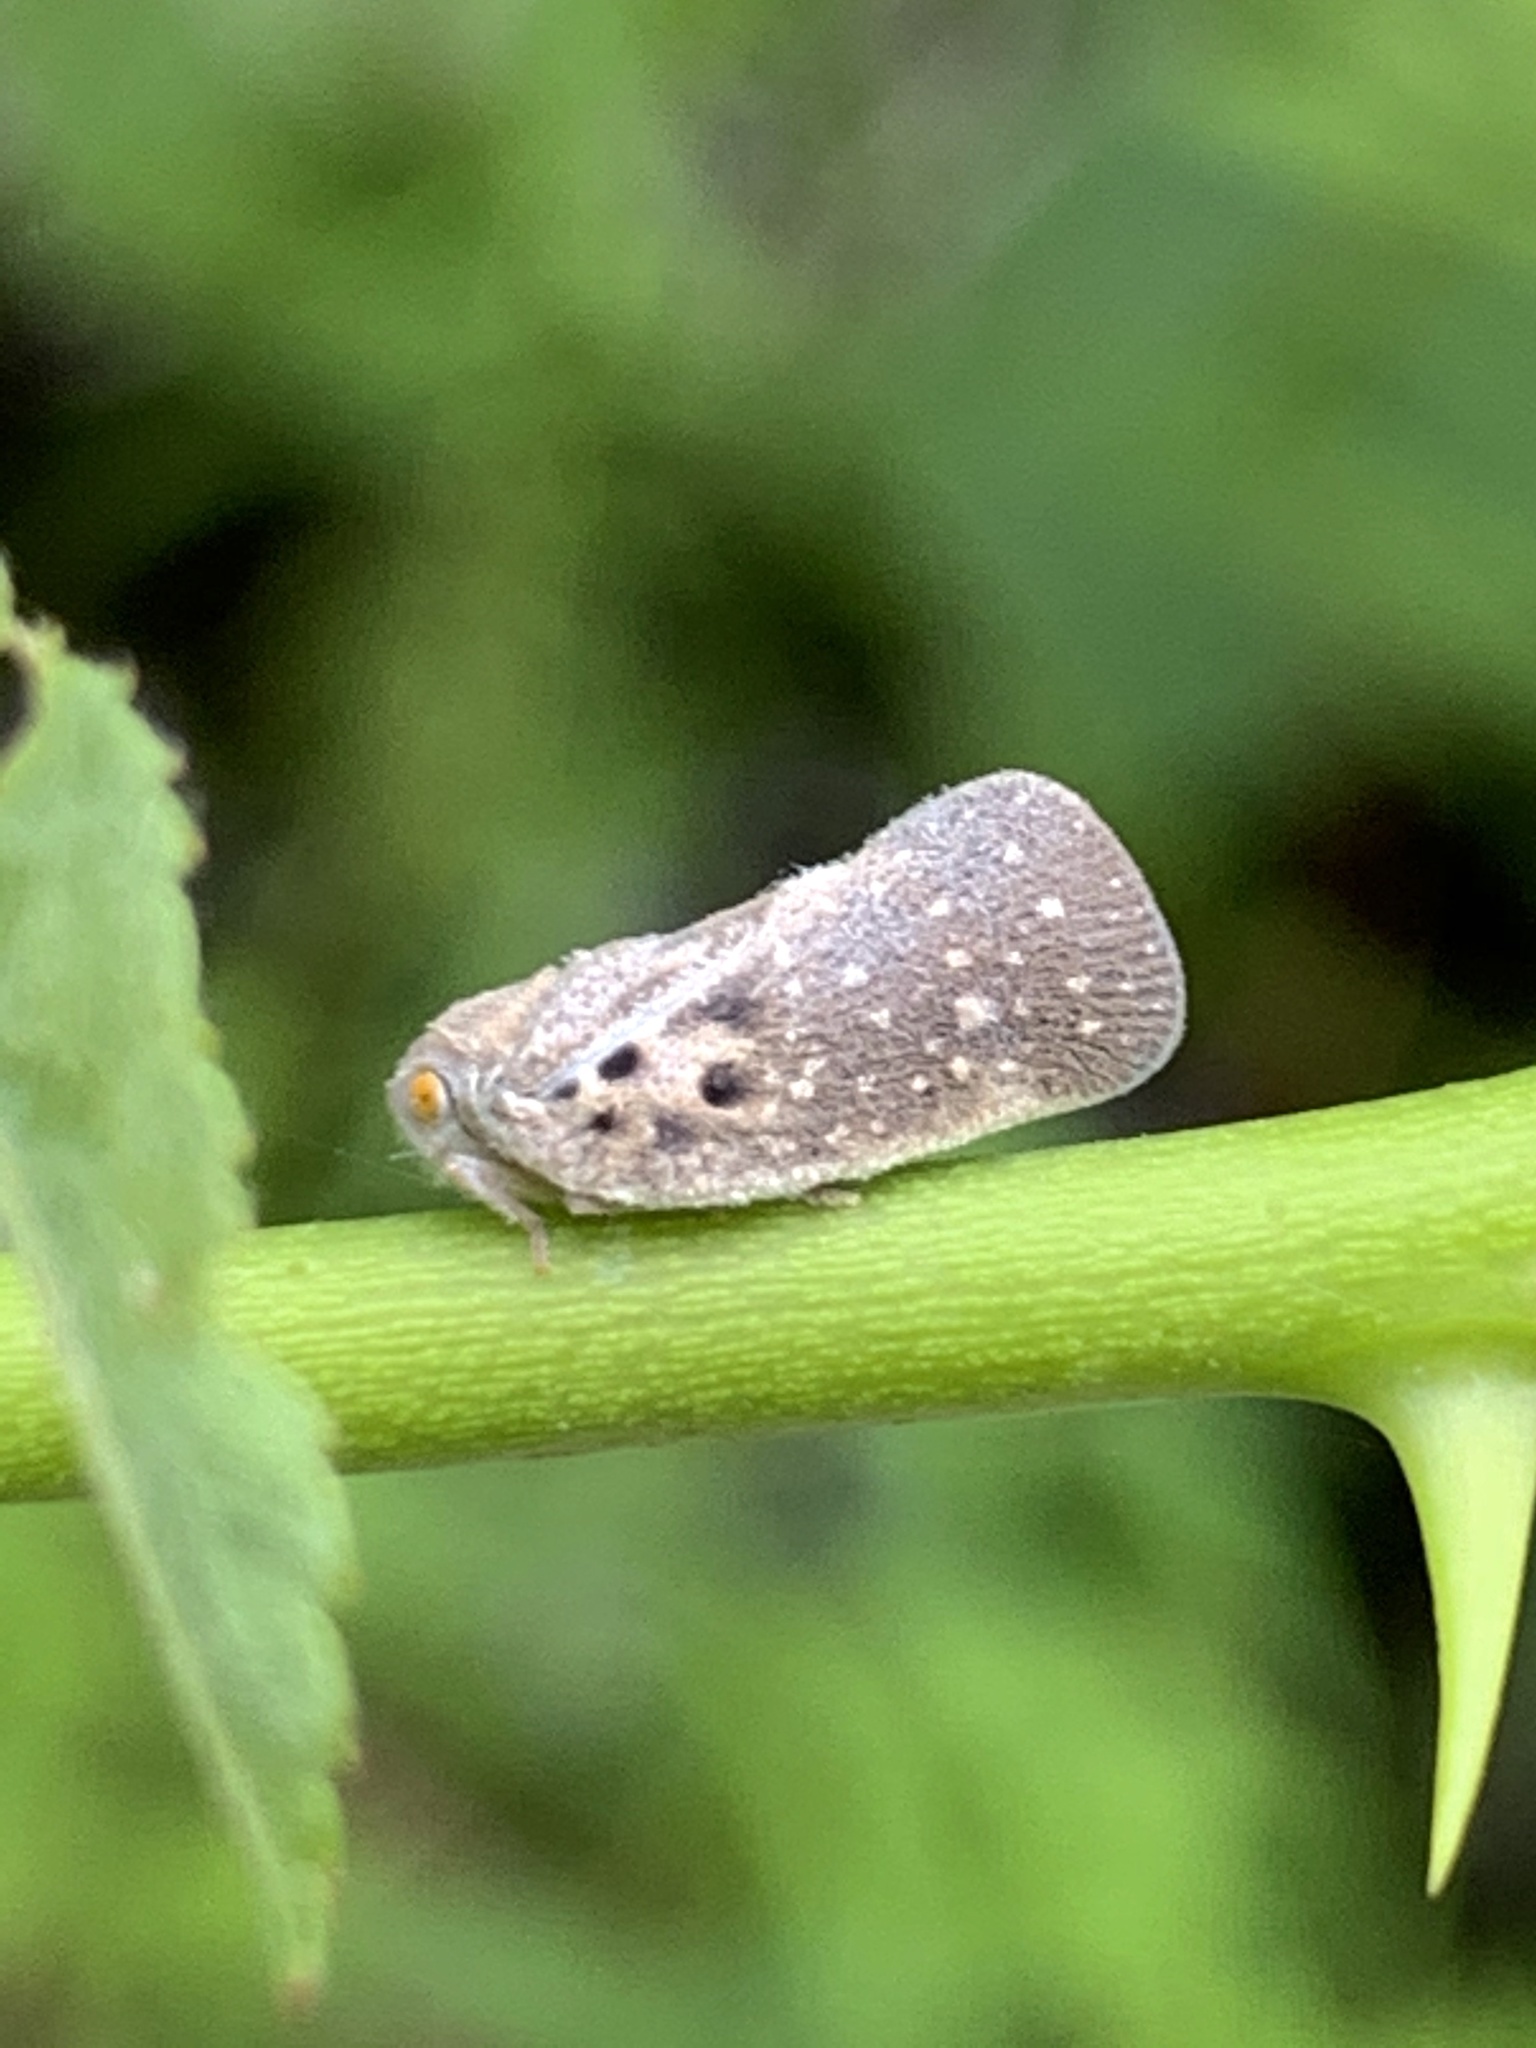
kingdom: Animalia
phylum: Arthropoda
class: Insecta
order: Hemiptera
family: Flatidae
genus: Metcalfa
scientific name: Metcalfa pruinosa
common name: Citrus flatid planthopper
